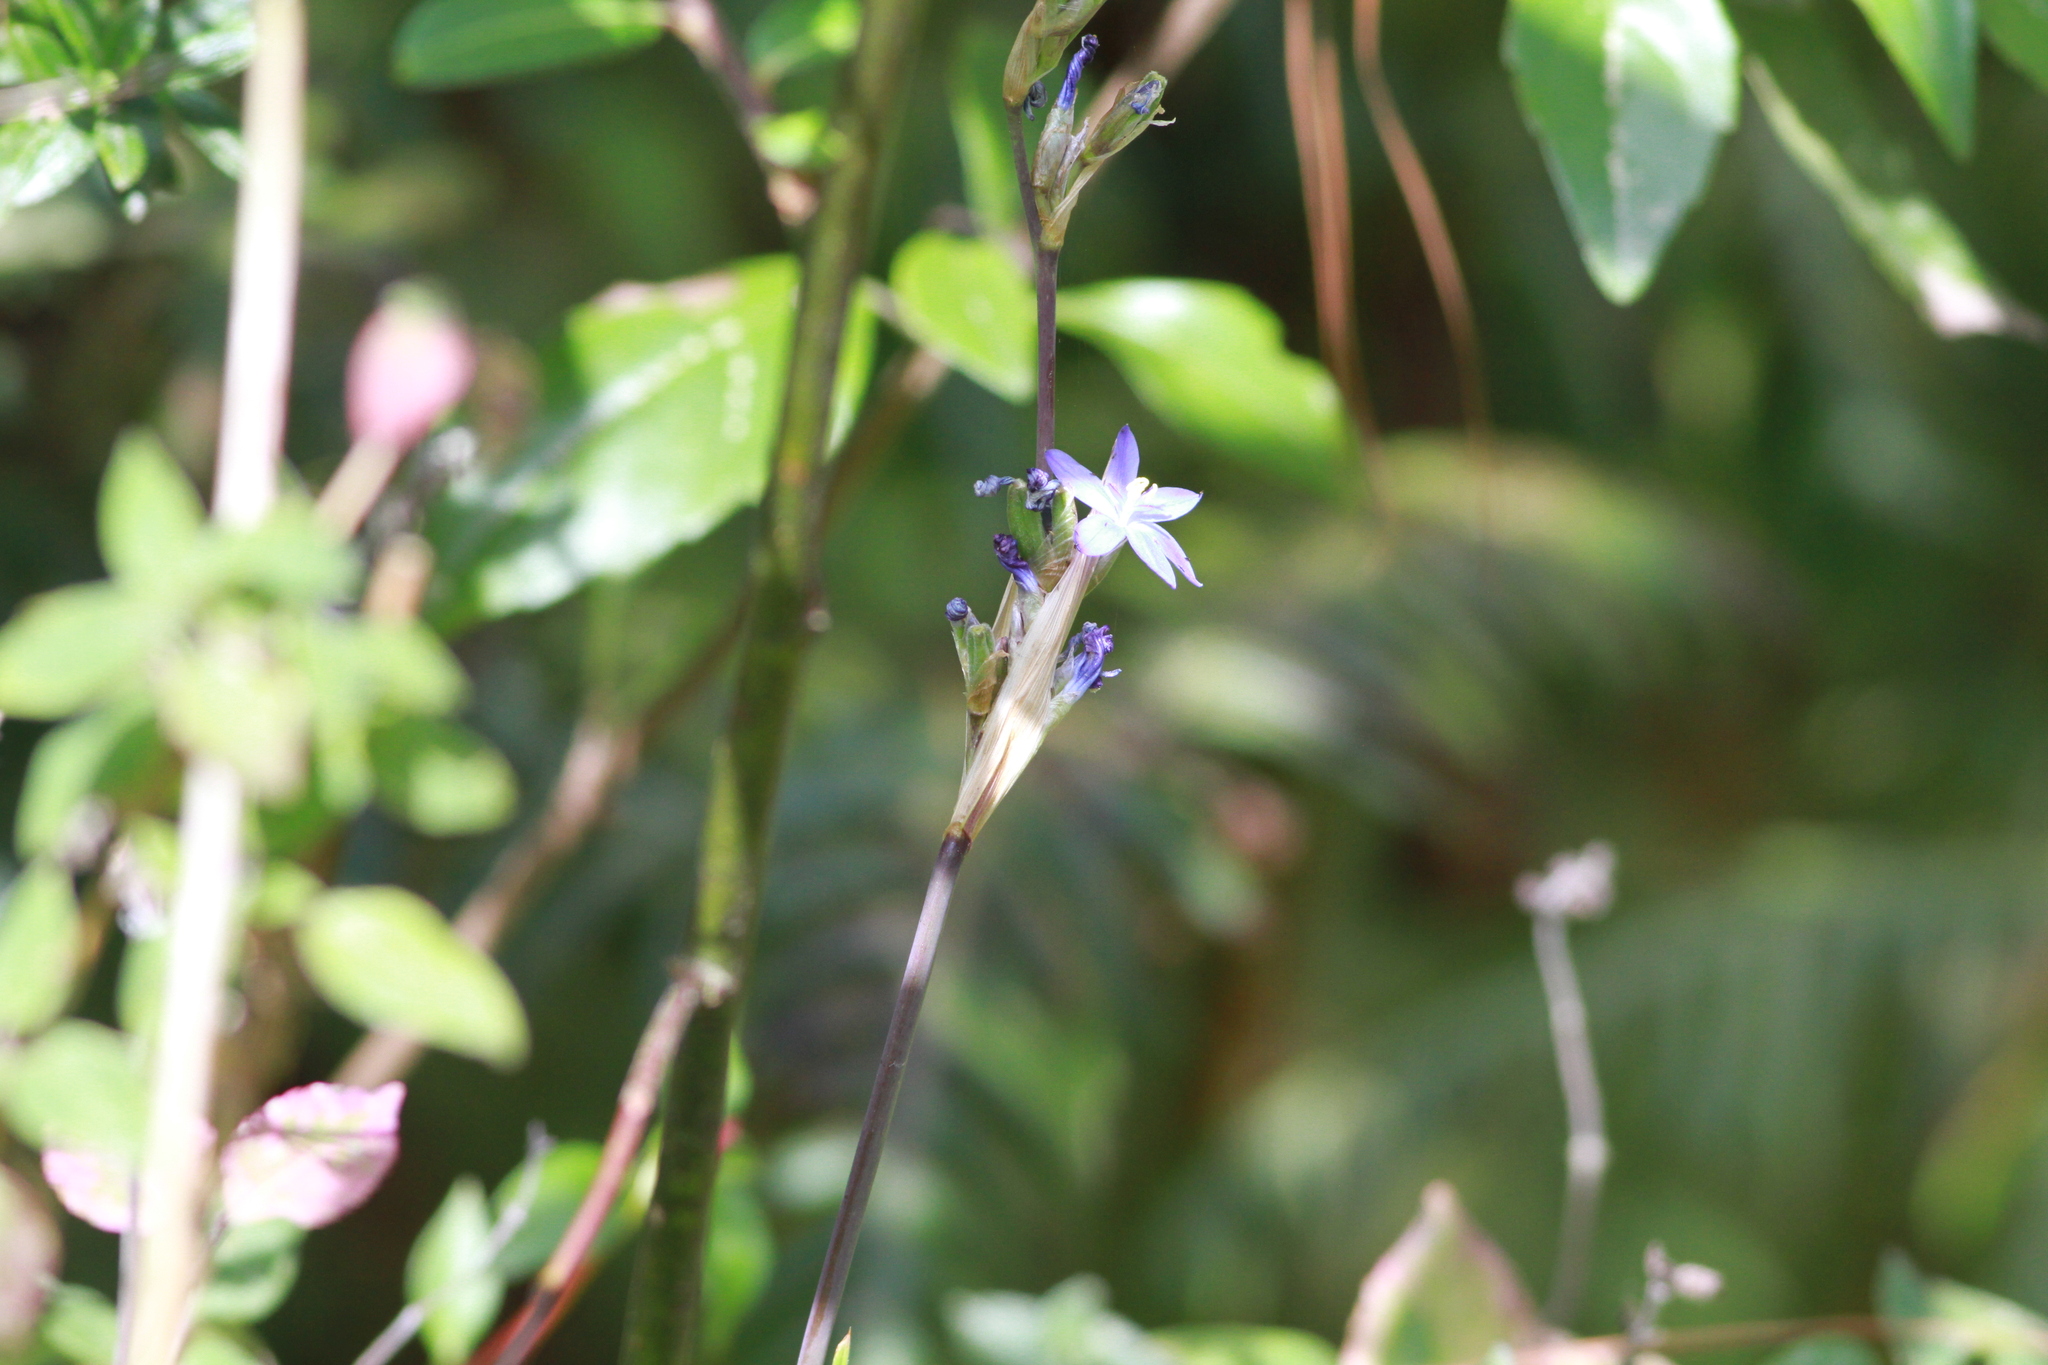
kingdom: Plantae
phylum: Tracheophyta
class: Liliopsida
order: Asparagales
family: Iridaceae
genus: Orthrosanthus
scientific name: Orthrosanthus monadelphus
